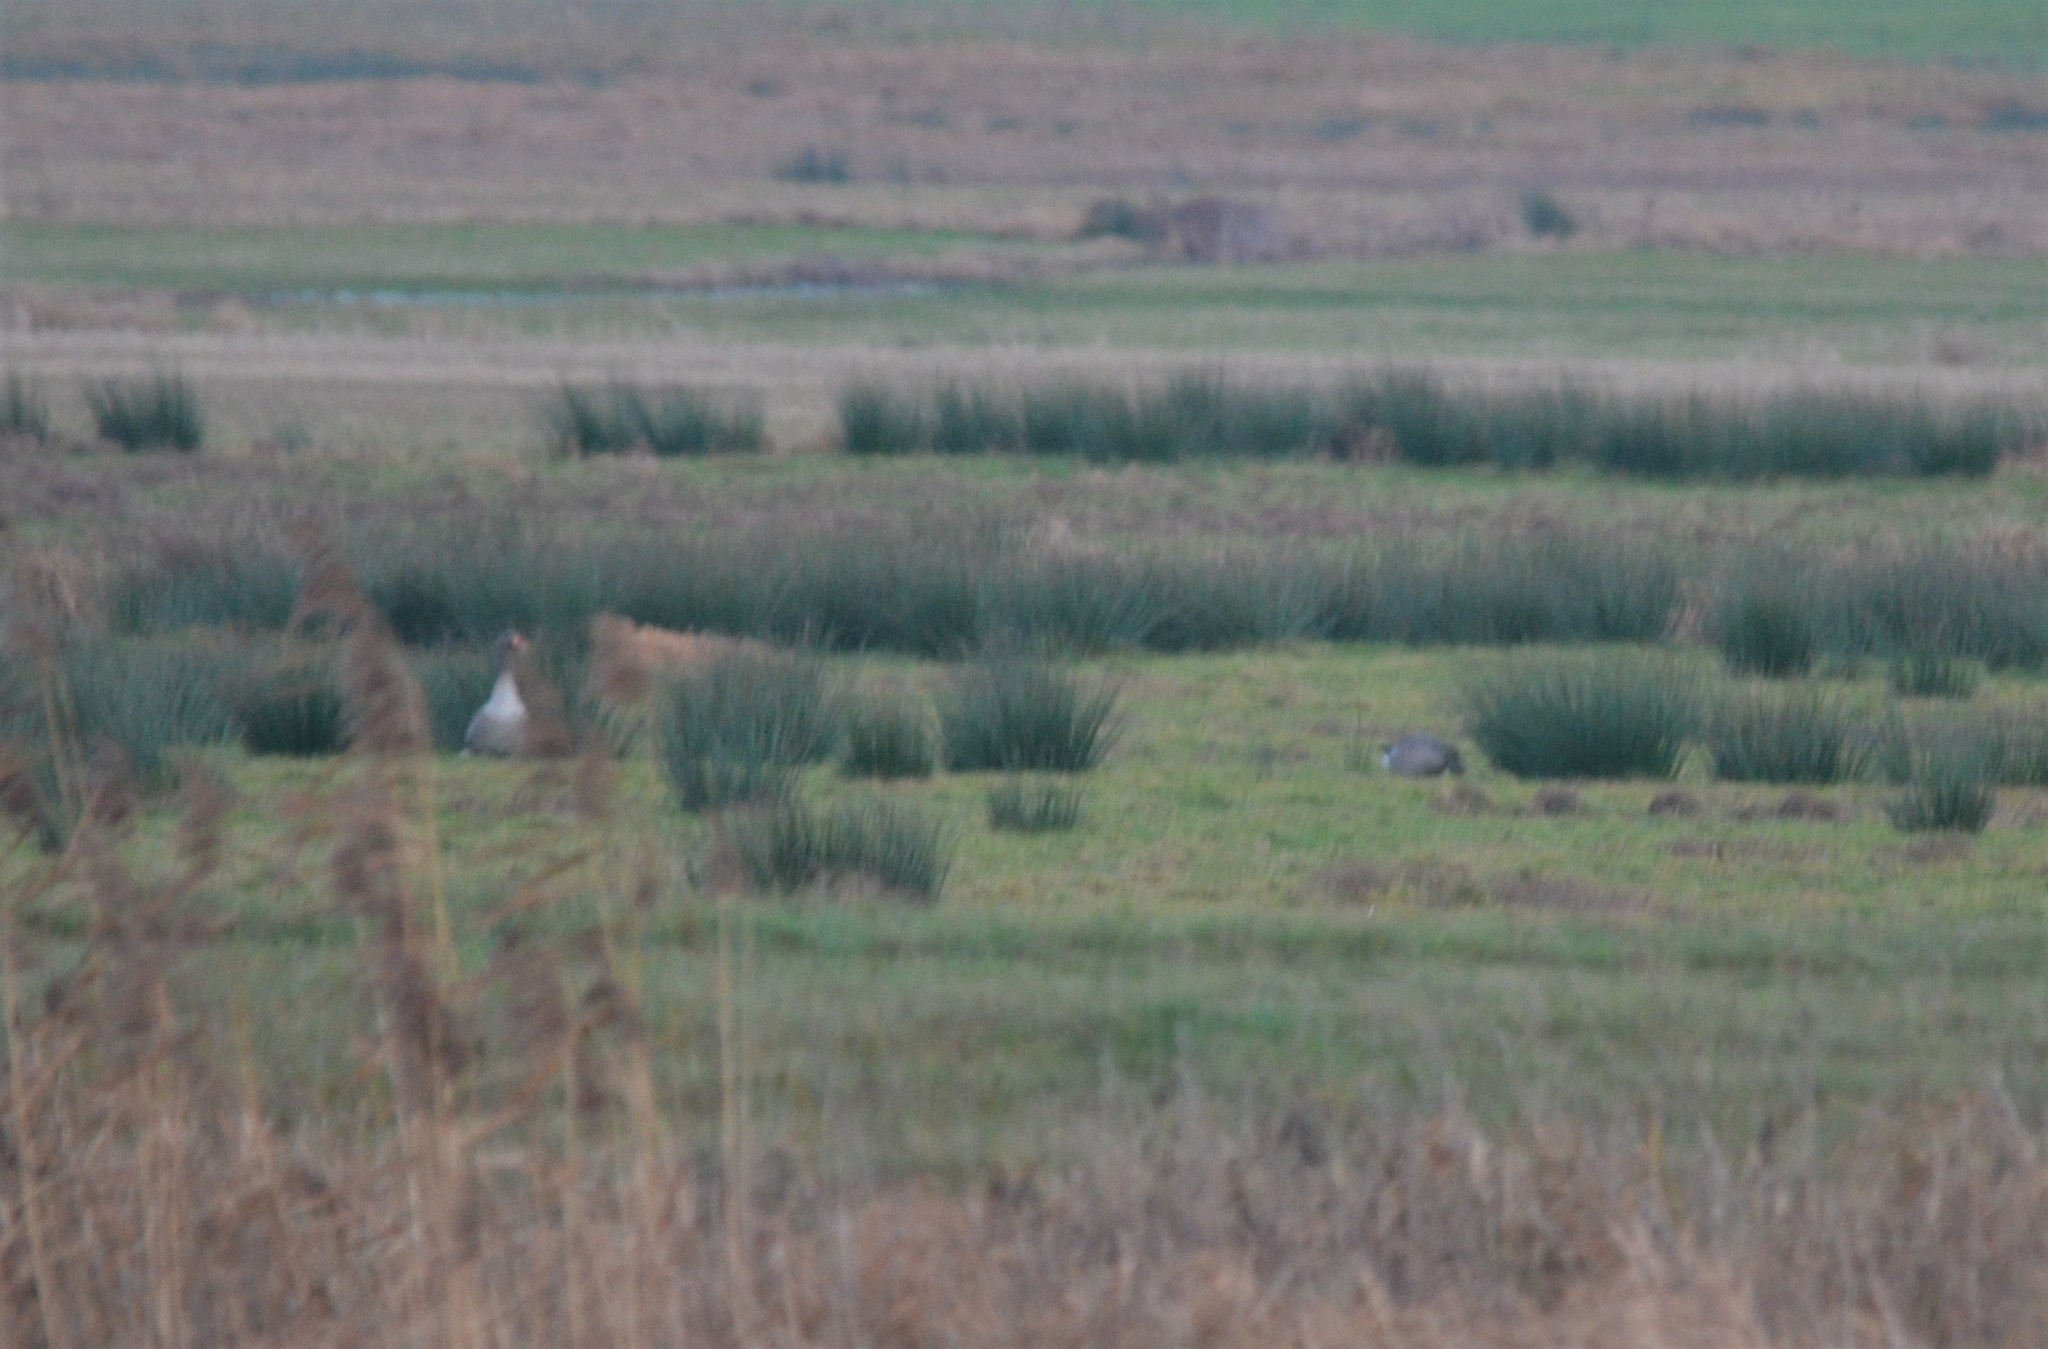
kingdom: Animalia
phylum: Chordata
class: Aves
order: Anseriformes
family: Anatidae
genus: Anser
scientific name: Anser anser
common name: Greylag goose
